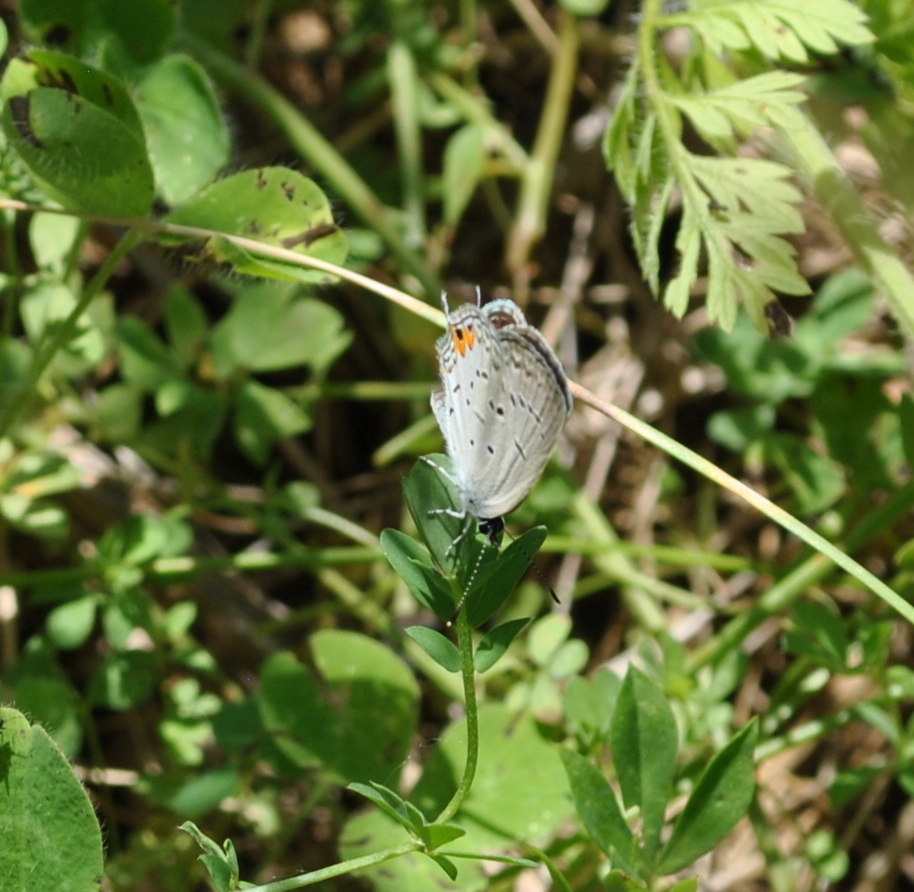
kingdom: Animalia
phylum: Arthropoda
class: Insecta
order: Lepidoptera
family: Lycaenidae
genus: Elkalyce
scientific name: Elkalyce comyntas
